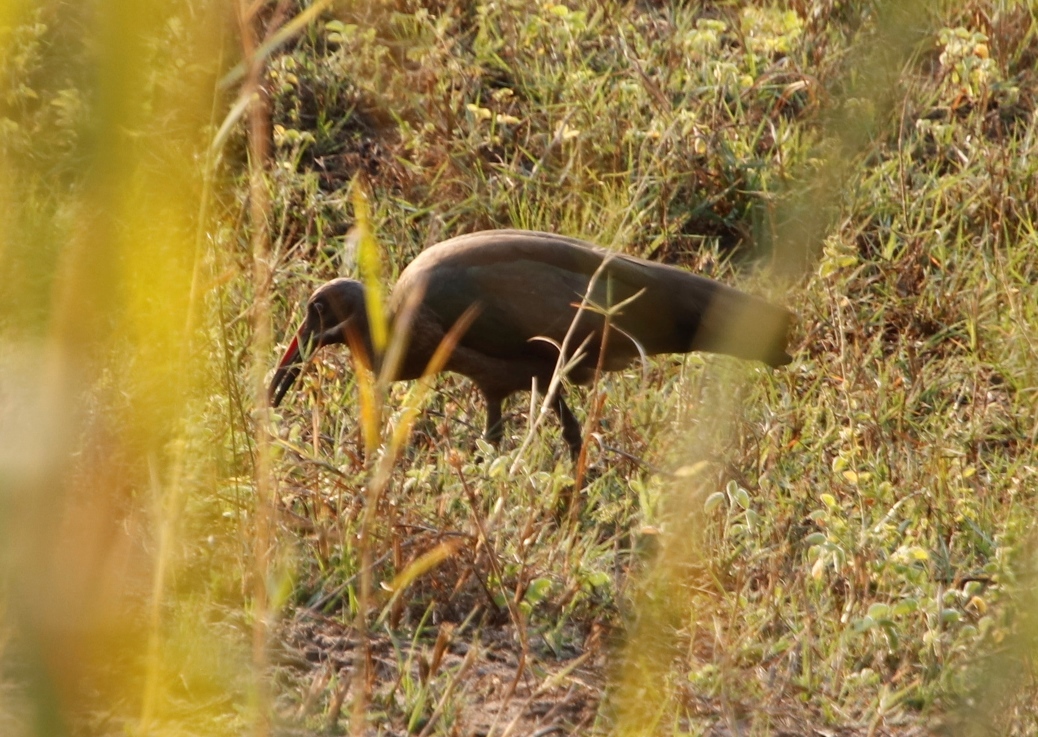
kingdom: Animalia
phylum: Chordata
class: Aves
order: Pelecaniformes
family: Threskiornithidae
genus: Bostrychia
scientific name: Bostrychia hagedash
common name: Hadada ibis
